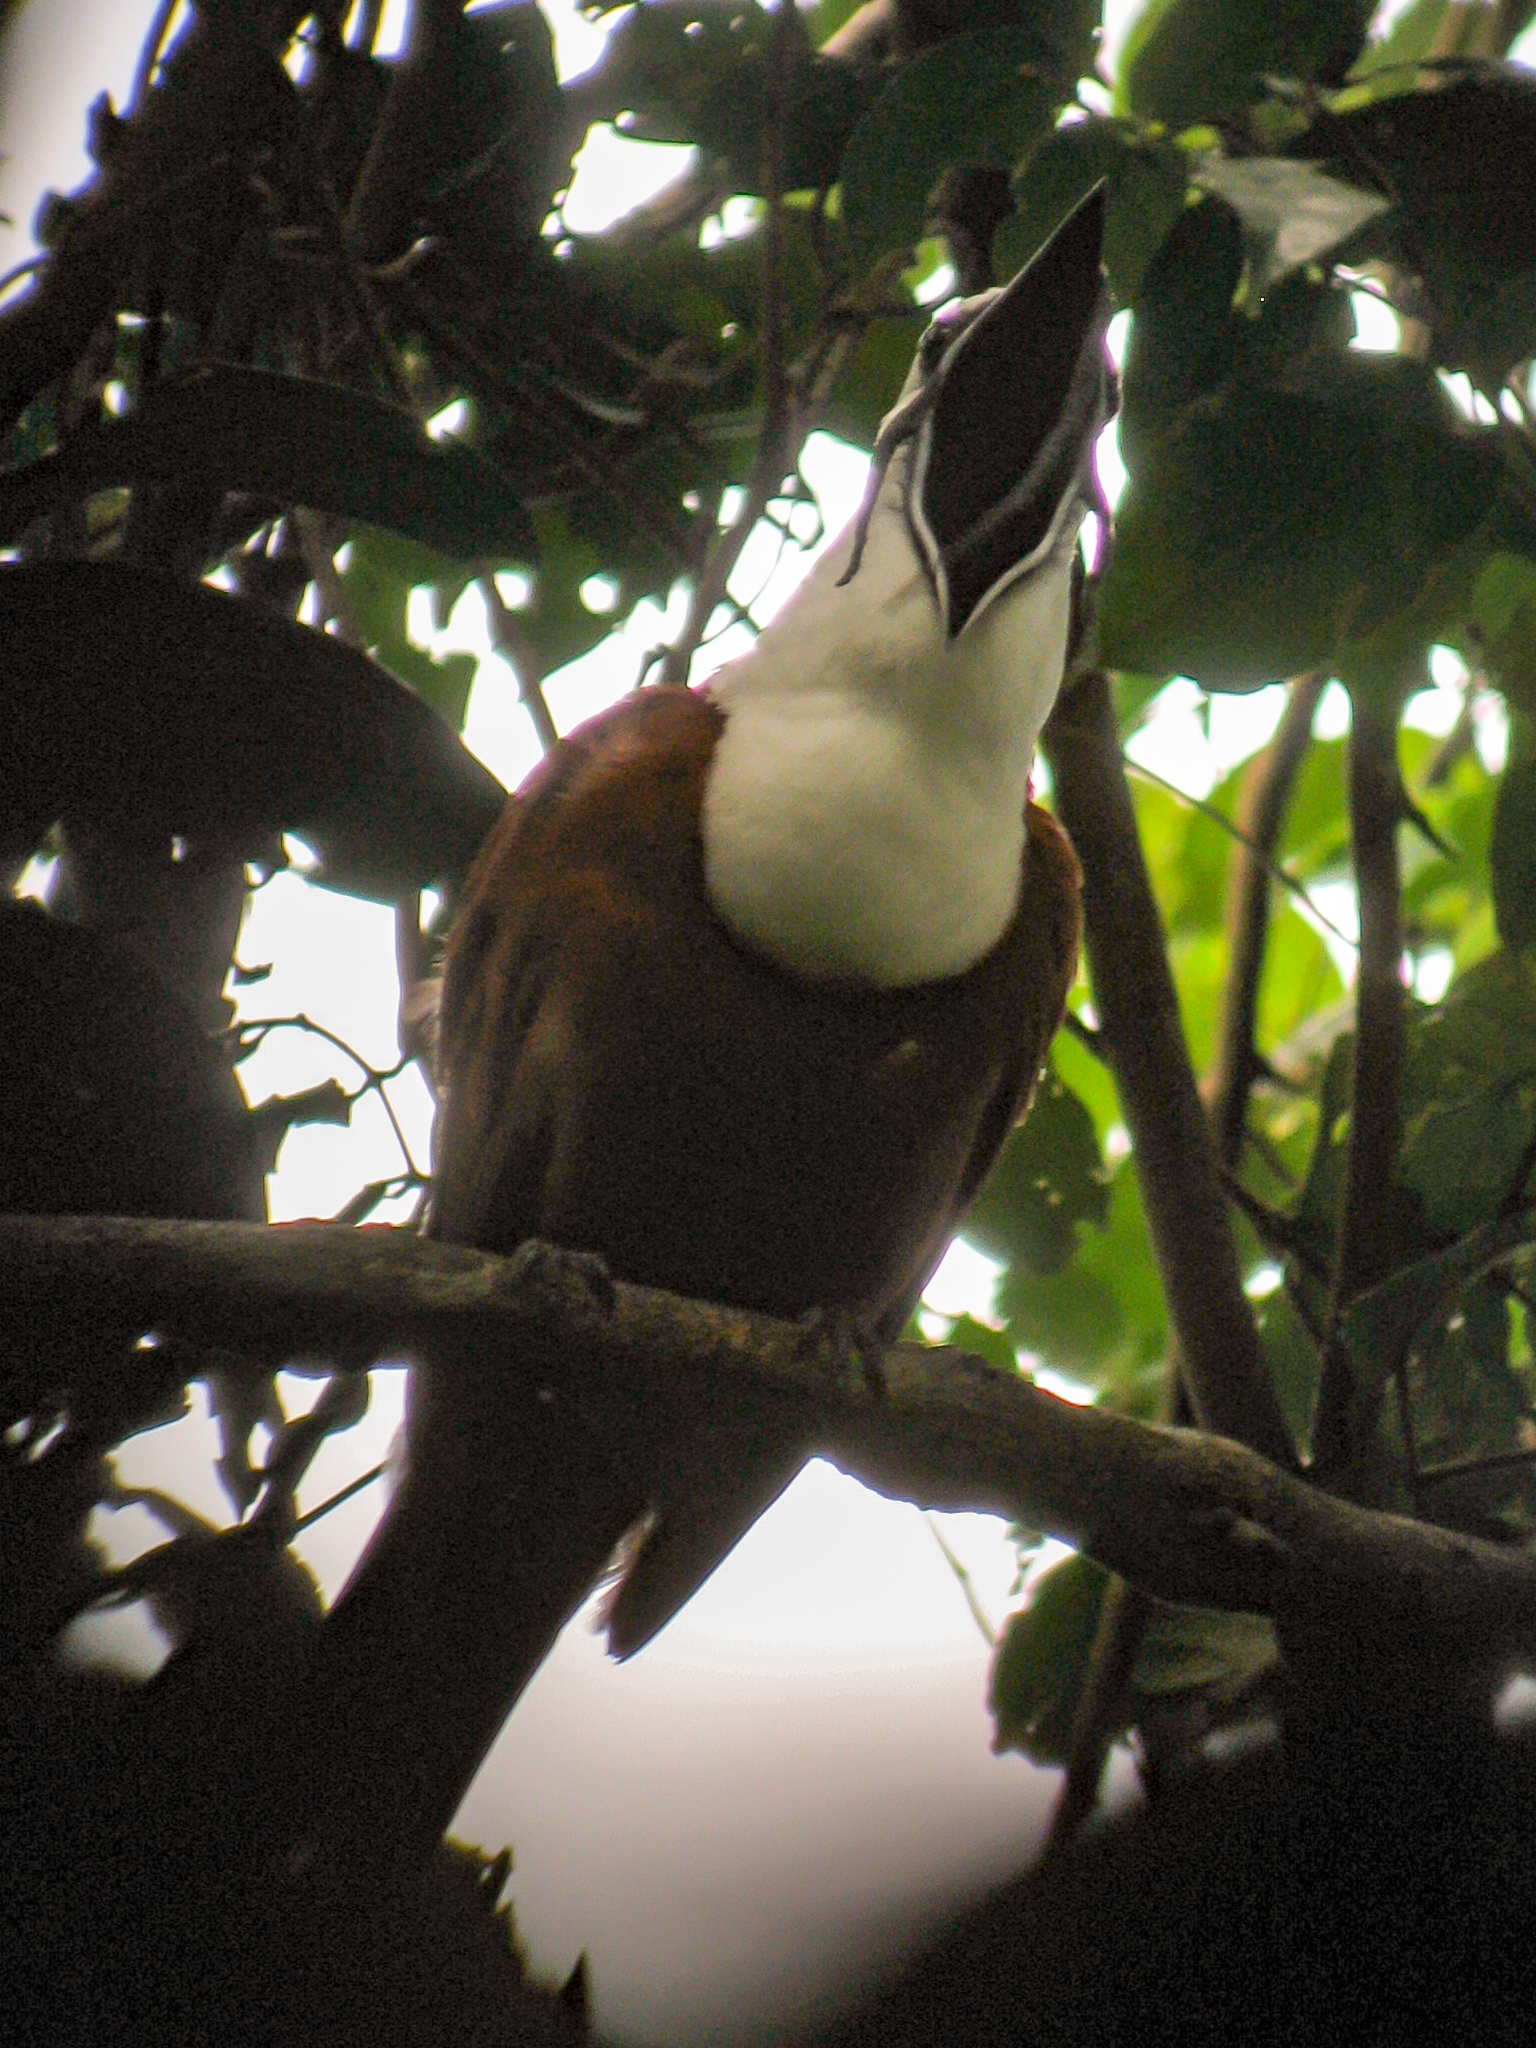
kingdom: Animalia
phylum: Chordata
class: Aves
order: Passeriformes
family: Cotingidae
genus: Procnias
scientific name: Procnias tricarunculatus
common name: Three-wattled bellbird
